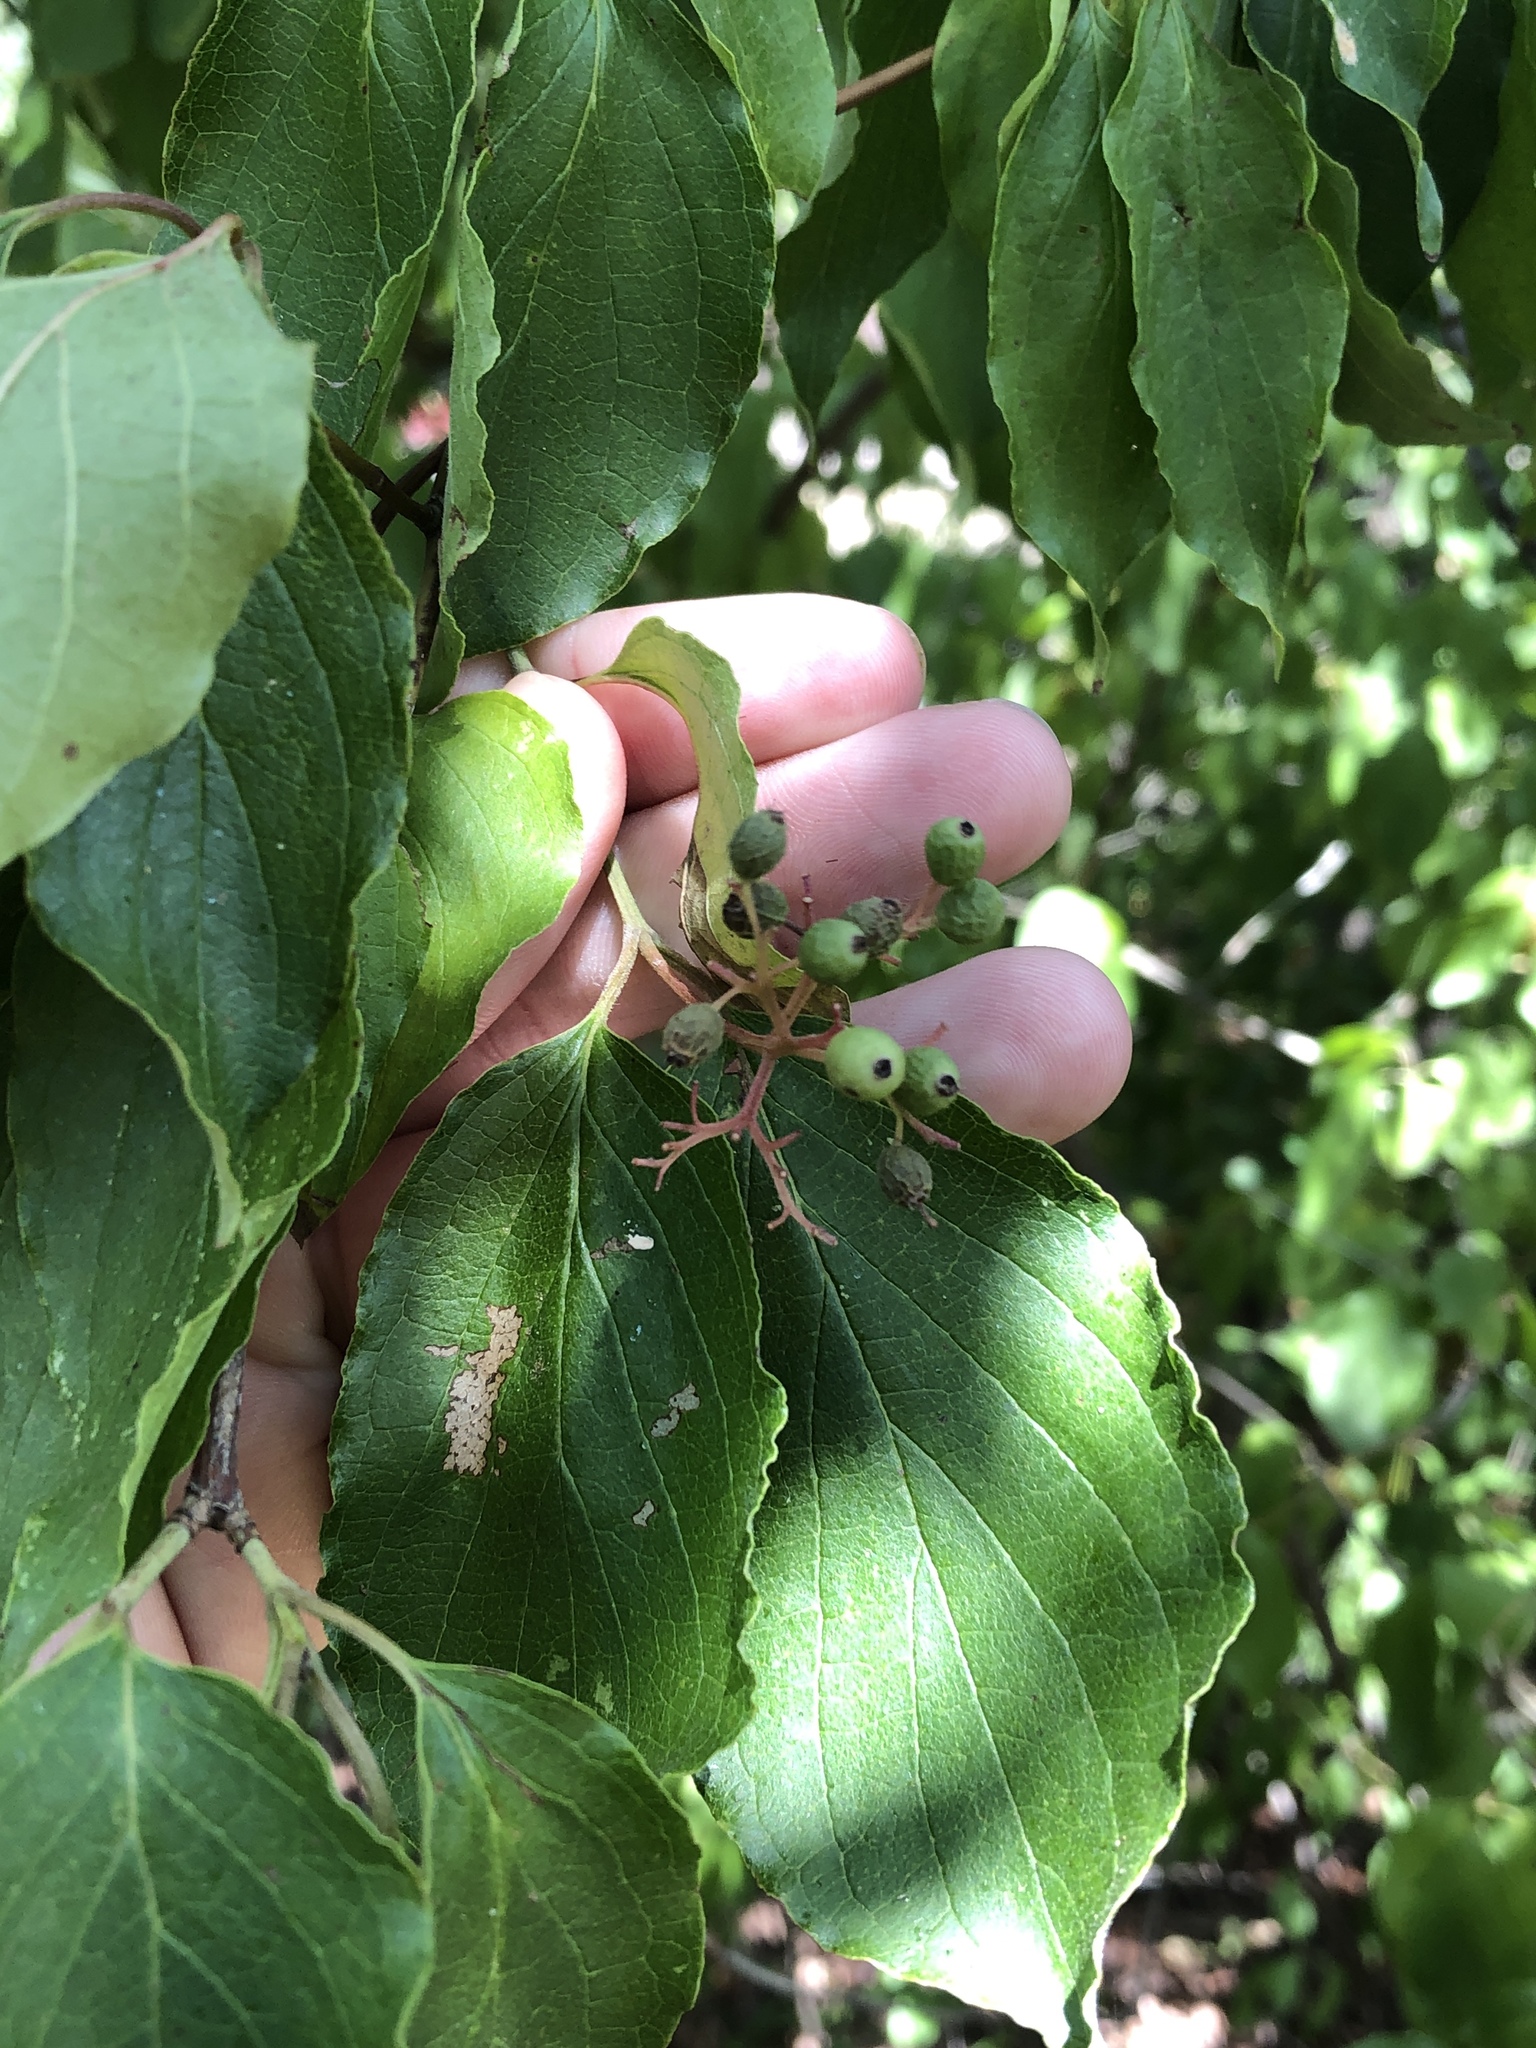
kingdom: Plantae
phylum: Tracheophyta
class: Magnoliopsida
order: Cornales
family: Cornaceae
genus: Cornus
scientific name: Cornus drummondii
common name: Rough-leaf dogwood
